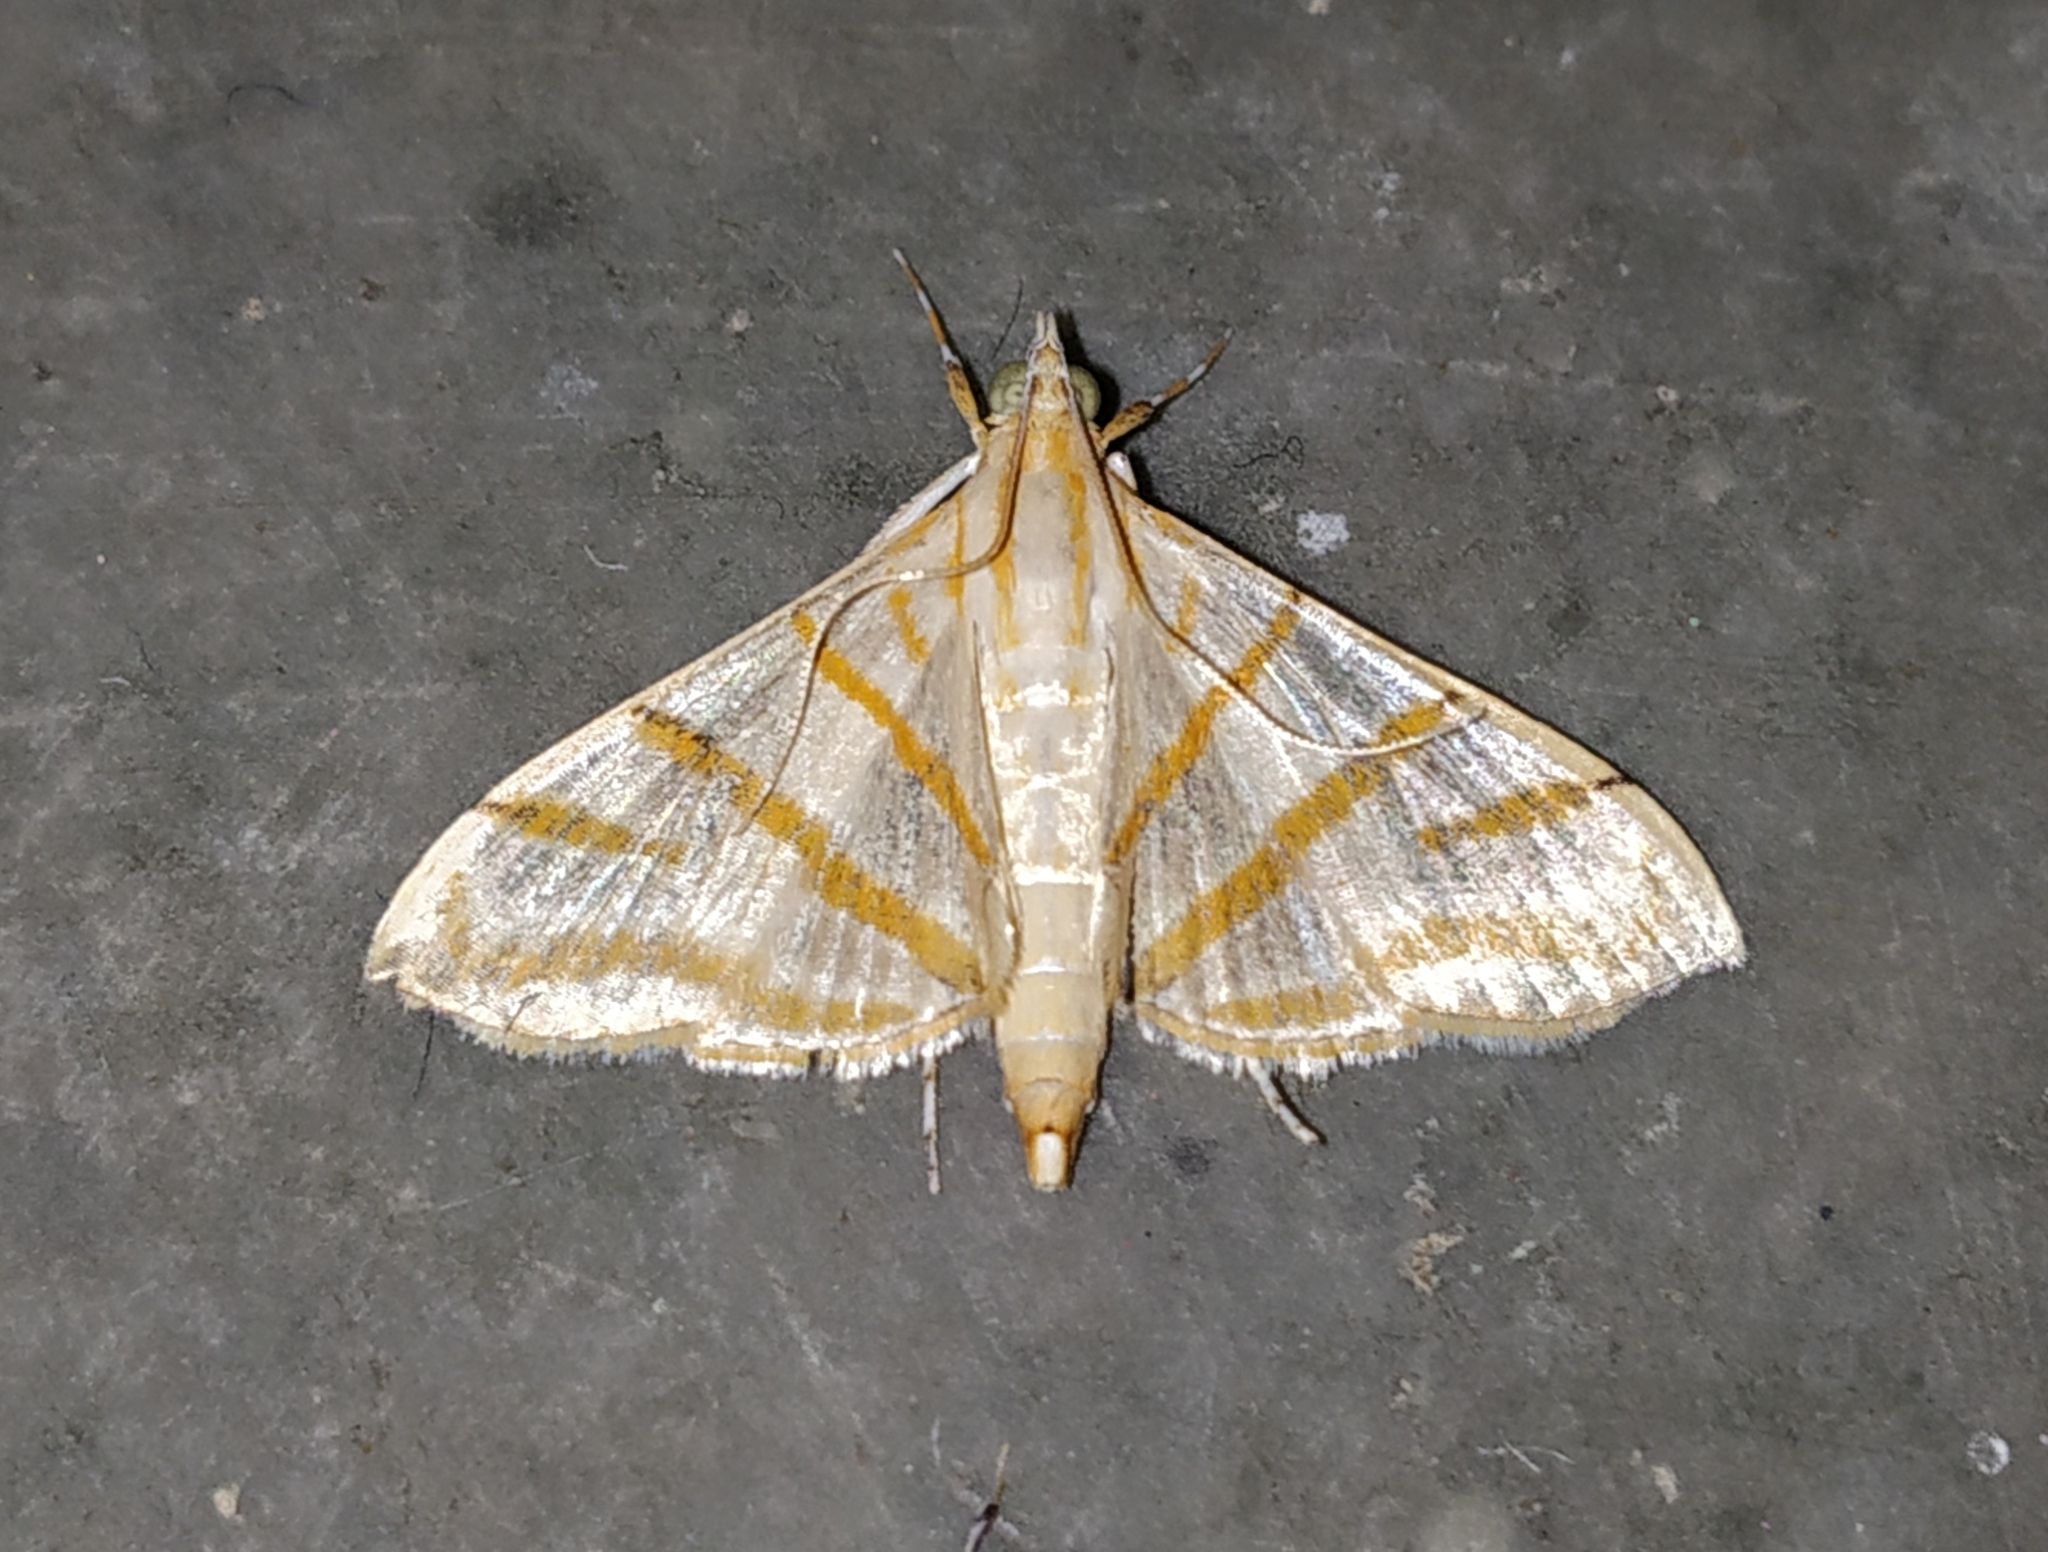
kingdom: Animalia
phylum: Arthropoda
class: Insecta
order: Lepidoptera
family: Crambidae
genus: Pagyda
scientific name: Pagyda salvalis
